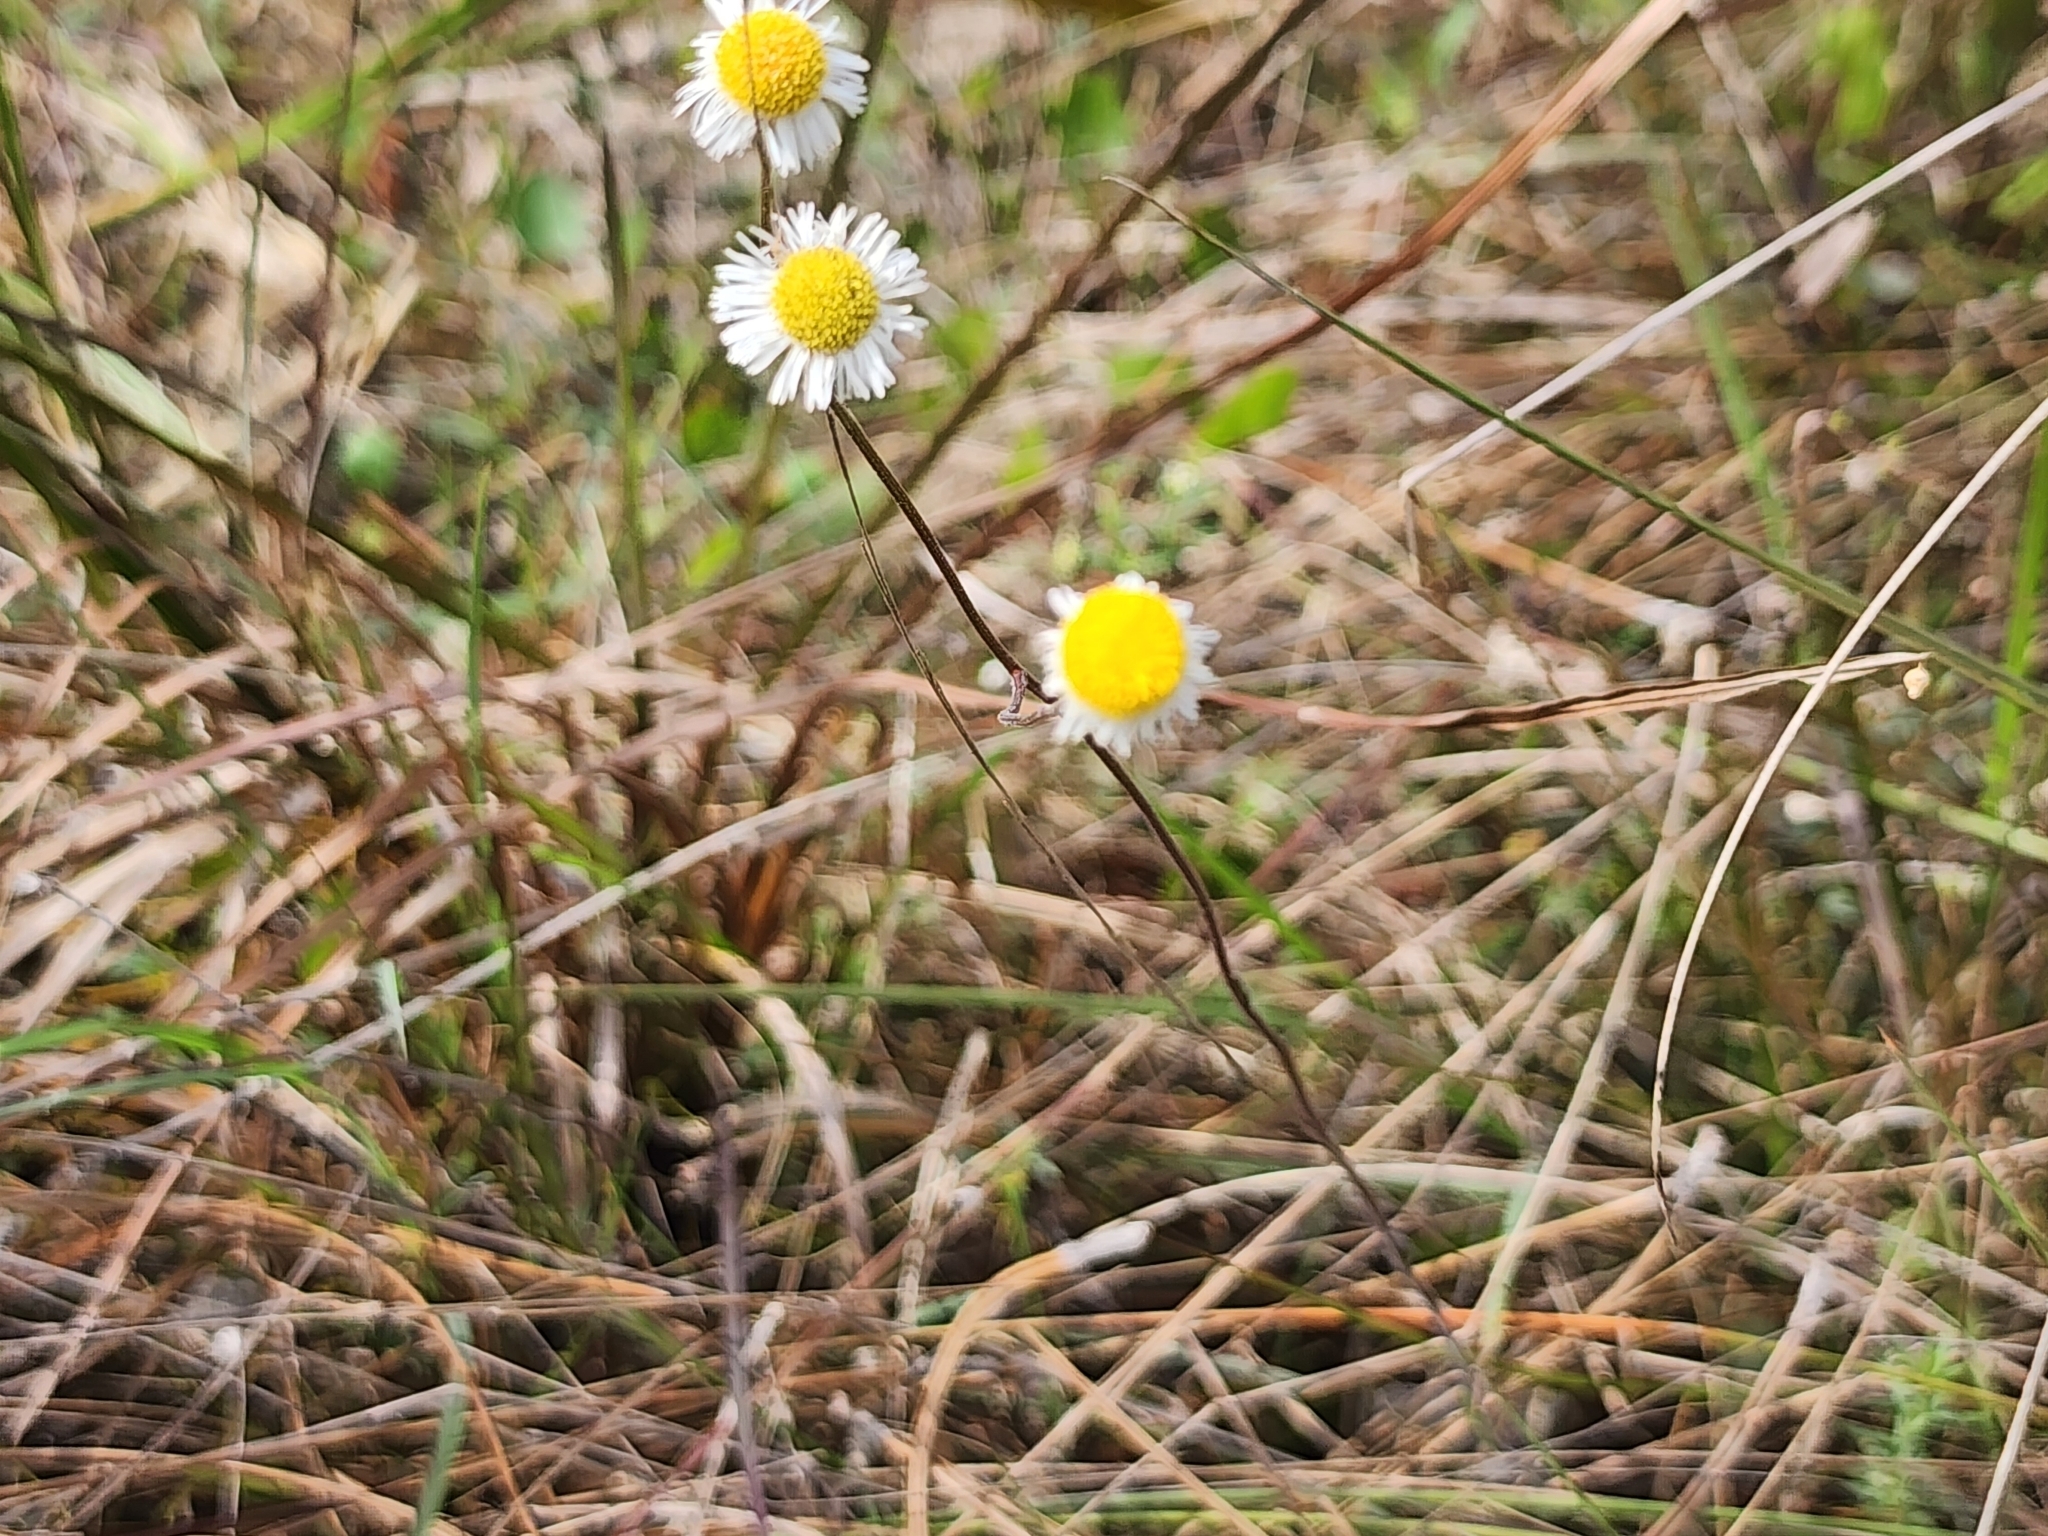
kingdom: Plantae
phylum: Tracheophyta
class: Magnoliopsida
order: Asterales
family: Asteraceae
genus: Erigeron
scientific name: Erigeron quercifolius
